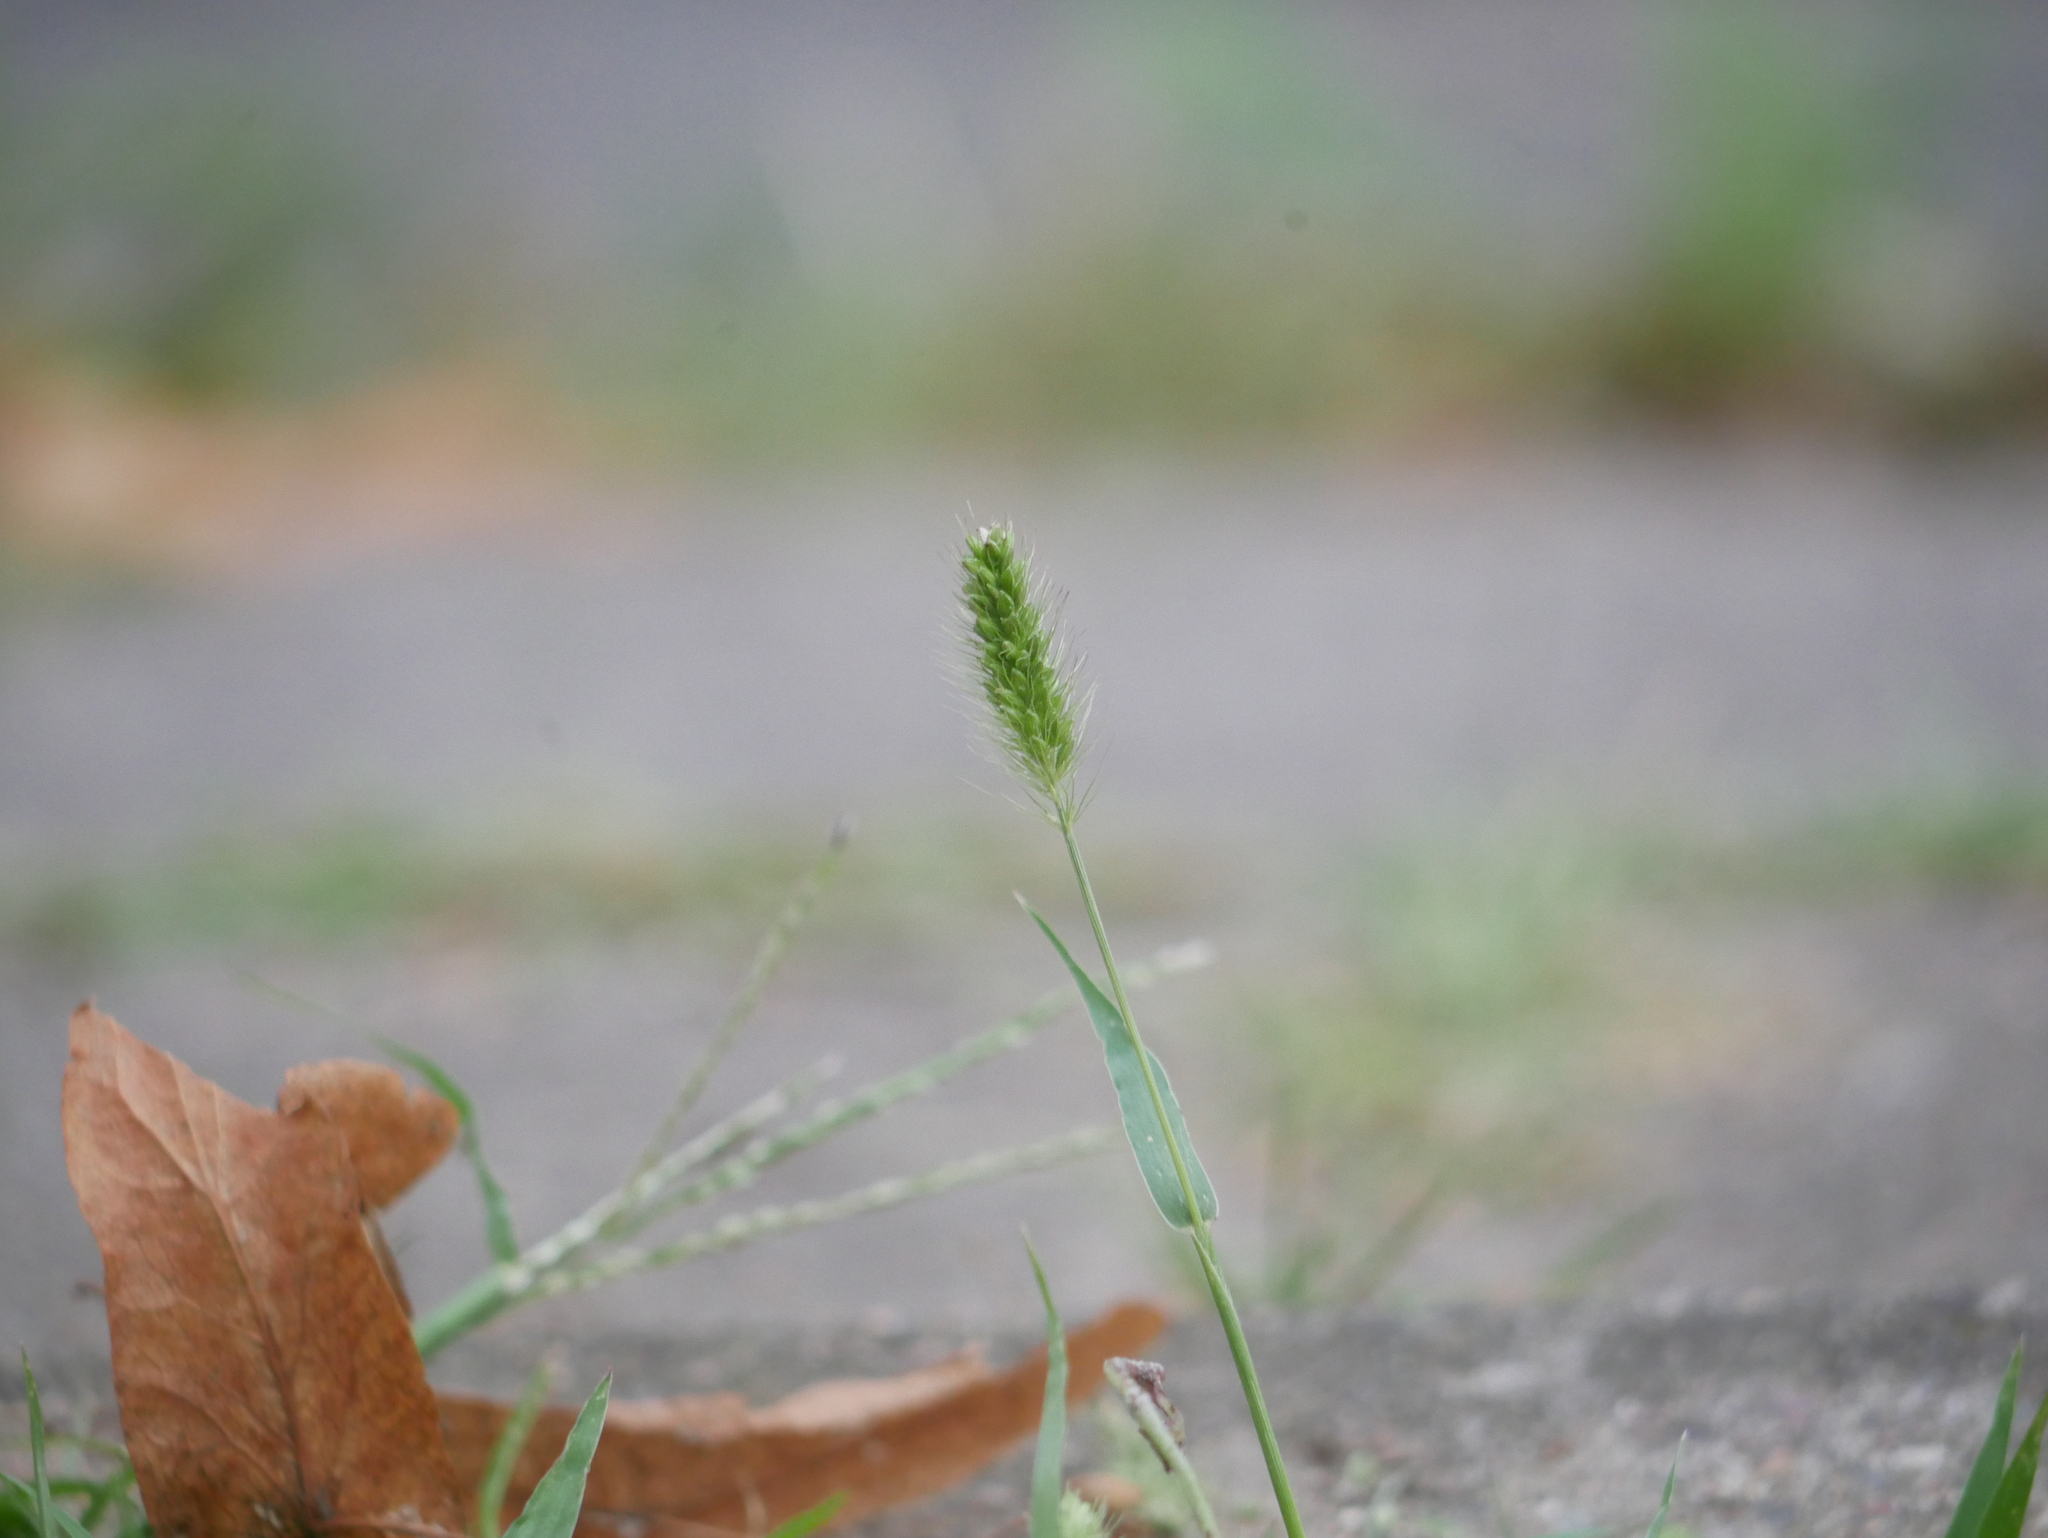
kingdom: Plantae
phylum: Tracheophyta
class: Liliopsida
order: Poales
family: Poaceae
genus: Setaria
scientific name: Setaria viridis
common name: Green bristlegrass
